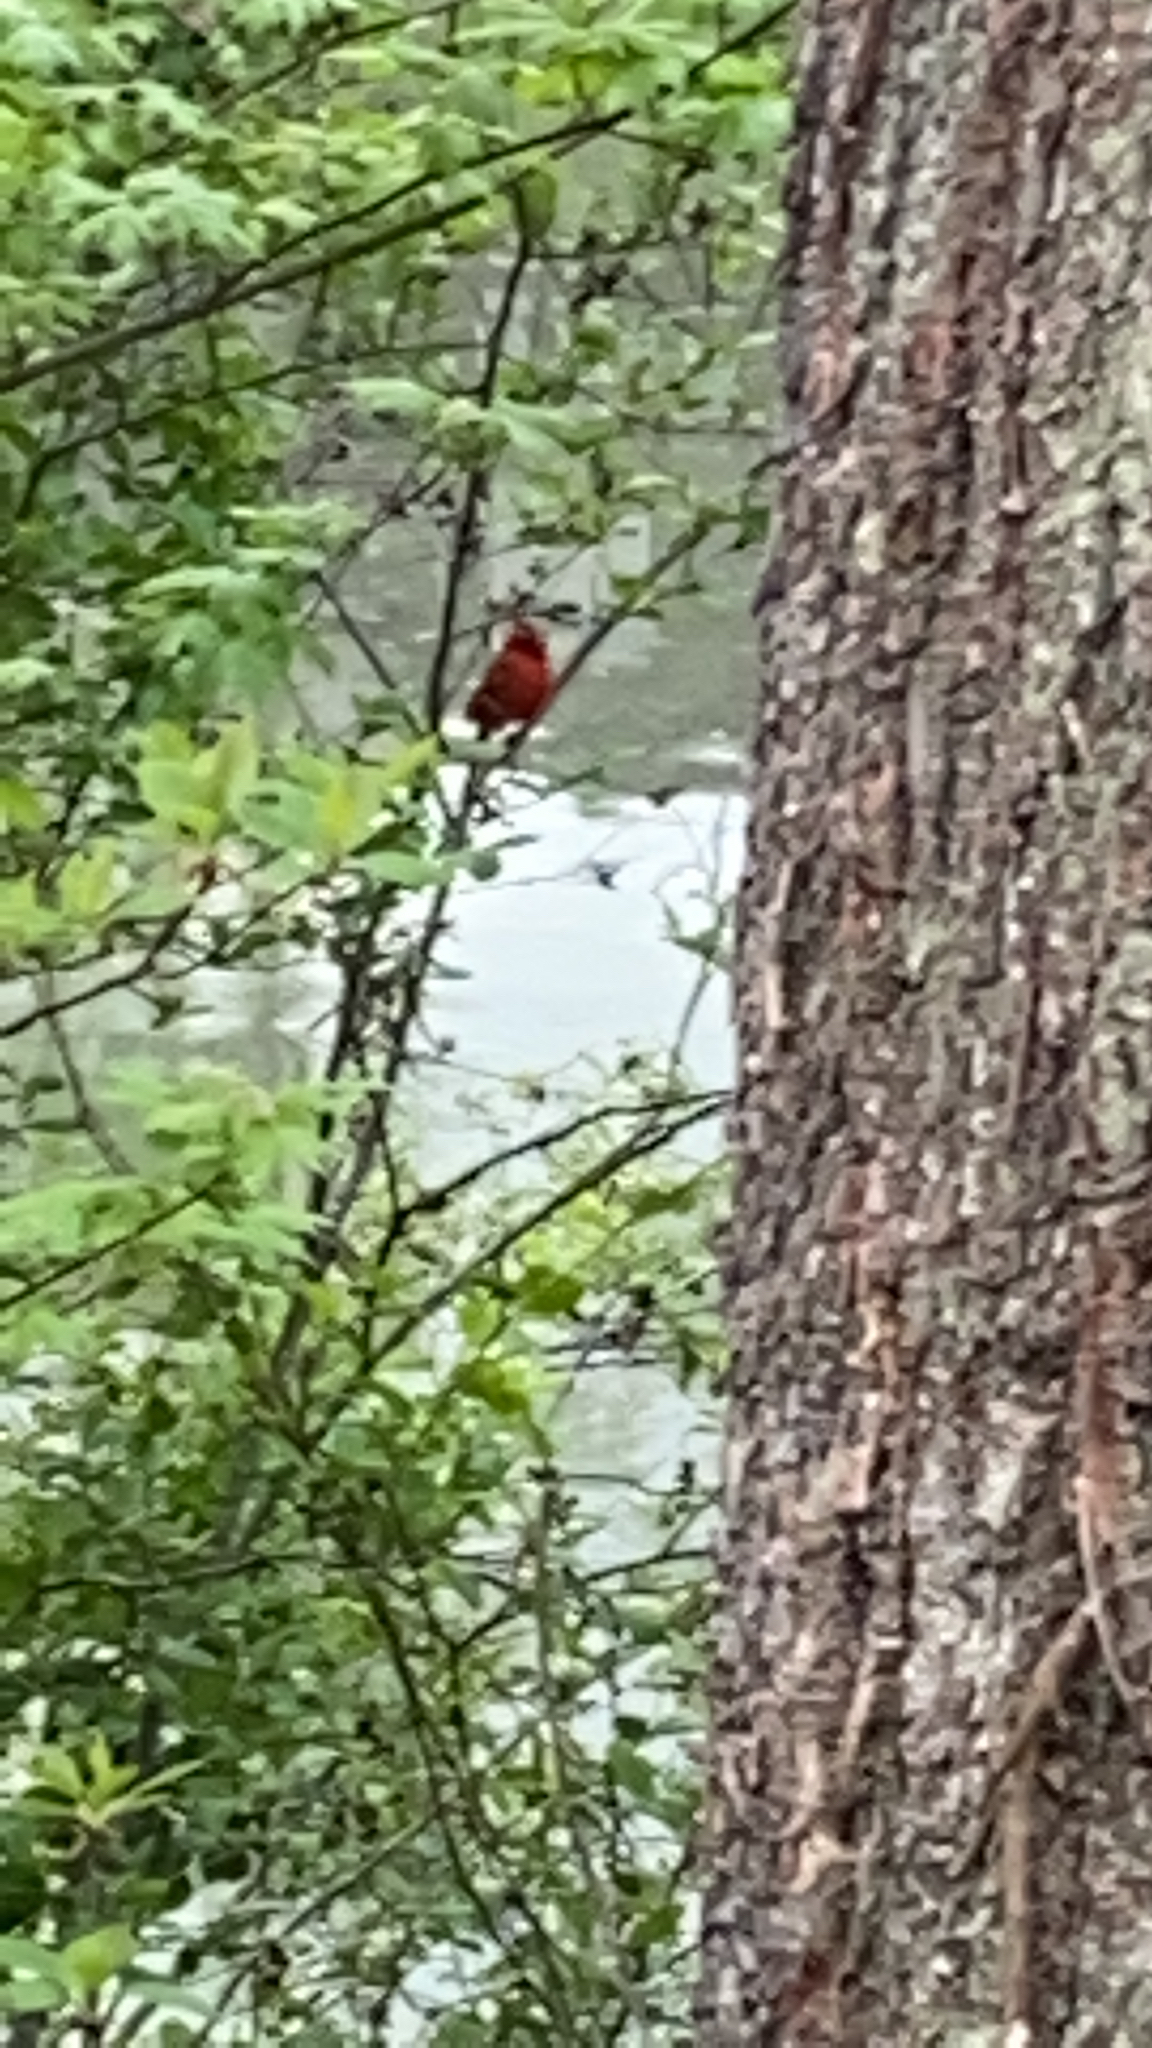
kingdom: Animalia
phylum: Chordata
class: Aves
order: Passeriformes
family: Cardinalidae
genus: Cardinalis
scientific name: Cardinalis cardinalis
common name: Northern cardinal
